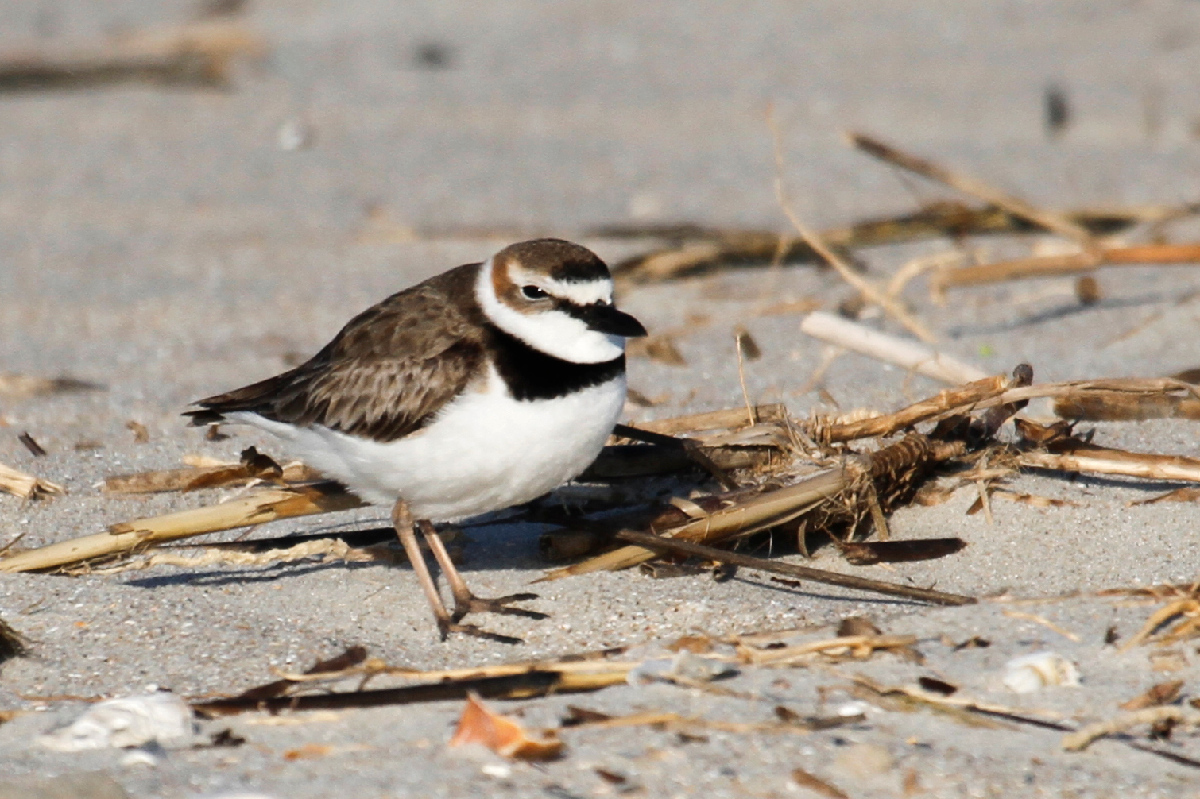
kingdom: Animalia
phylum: Chordata
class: Aves
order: Charadriiformes
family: Charadriidae
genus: Anarhynchus
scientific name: Anarhynchus
